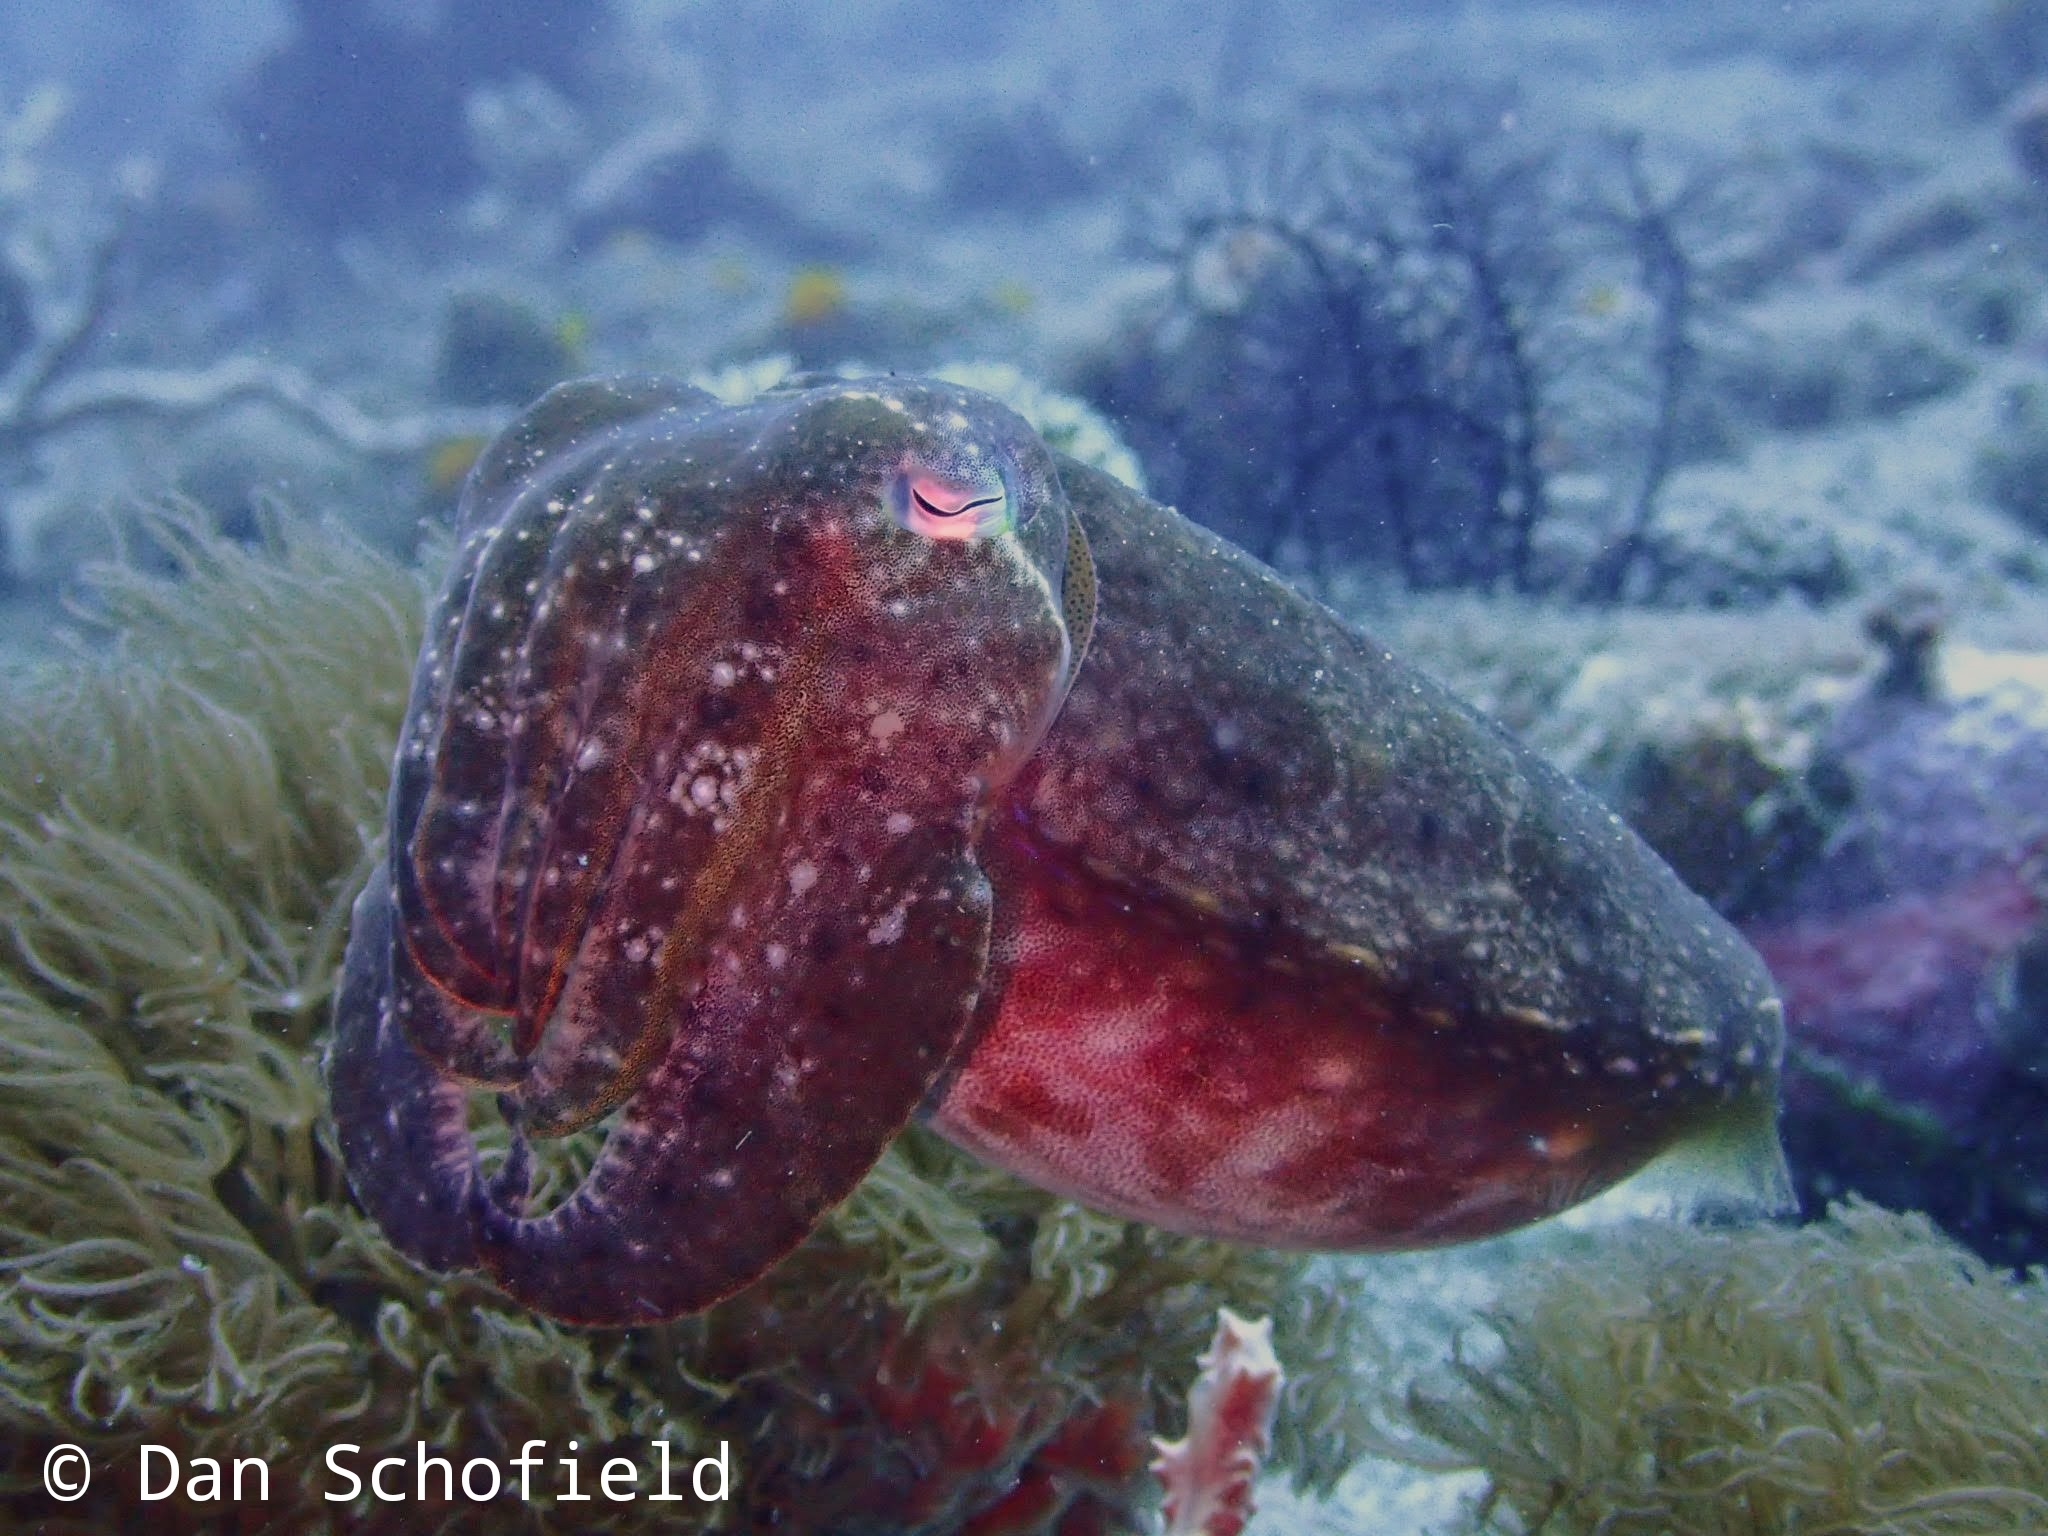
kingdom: Animalia
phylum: Mollusca
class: Cephalopoda
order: Sepiida
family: Sepiidae
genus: Ascarosepion
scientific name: Ascarosepion latimanus
